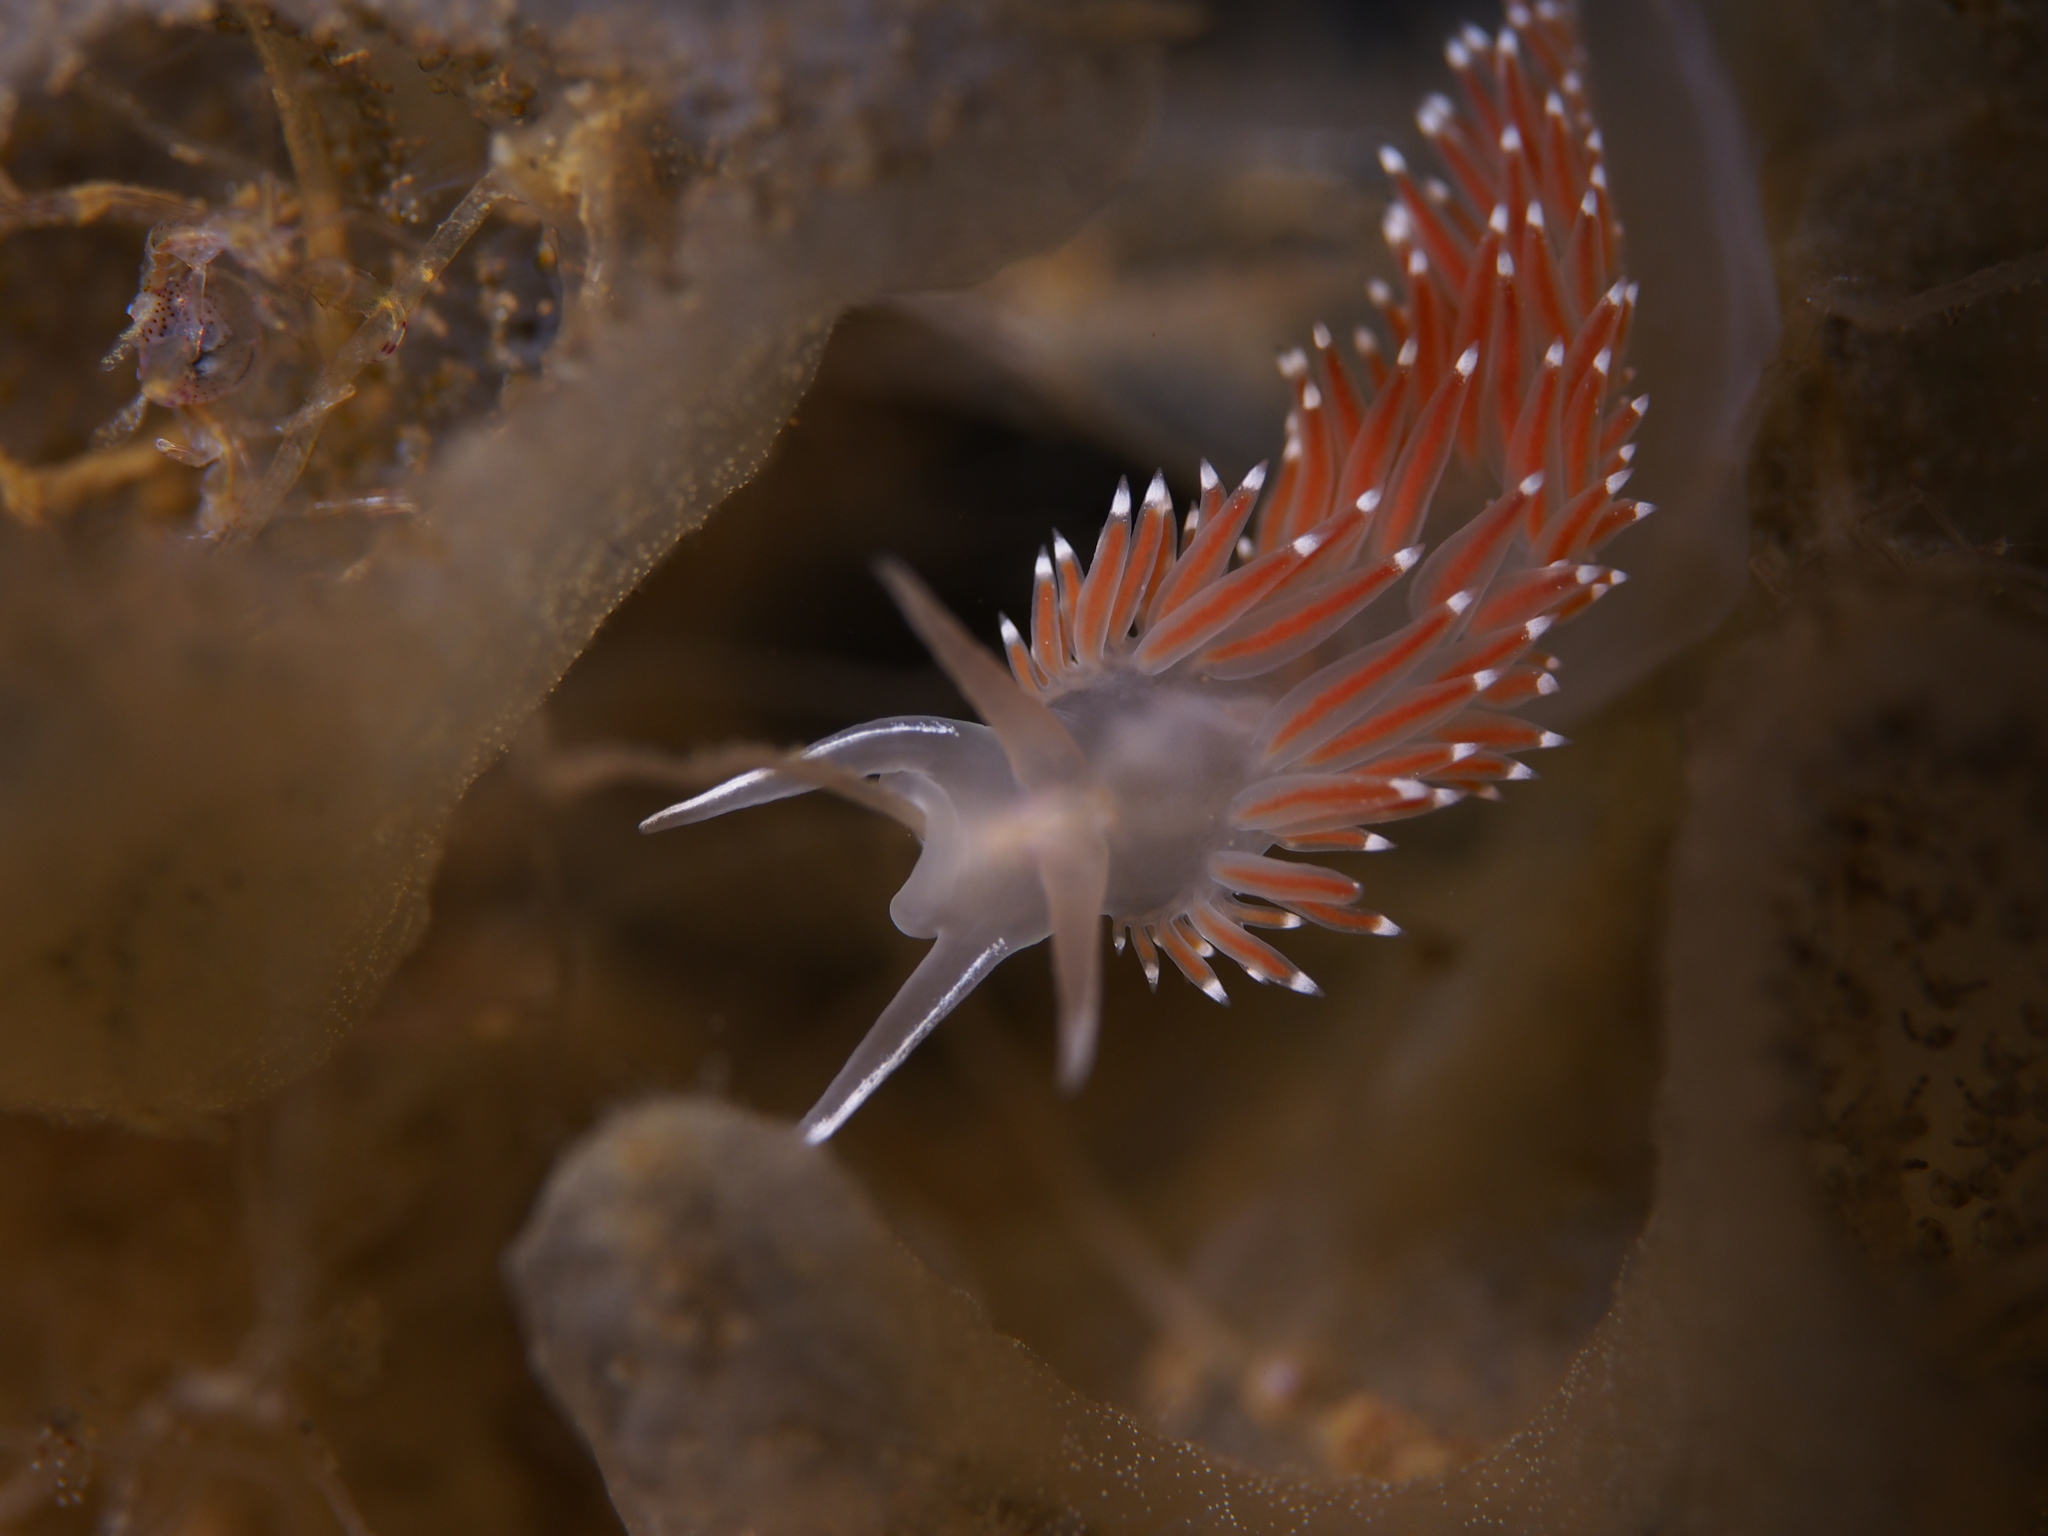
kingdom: Animalia
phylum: Mollusca
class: Gastropoda
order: Nudibranchia
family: Coryphellidae
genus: Coryphella
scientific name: Coryphella verrucosa
